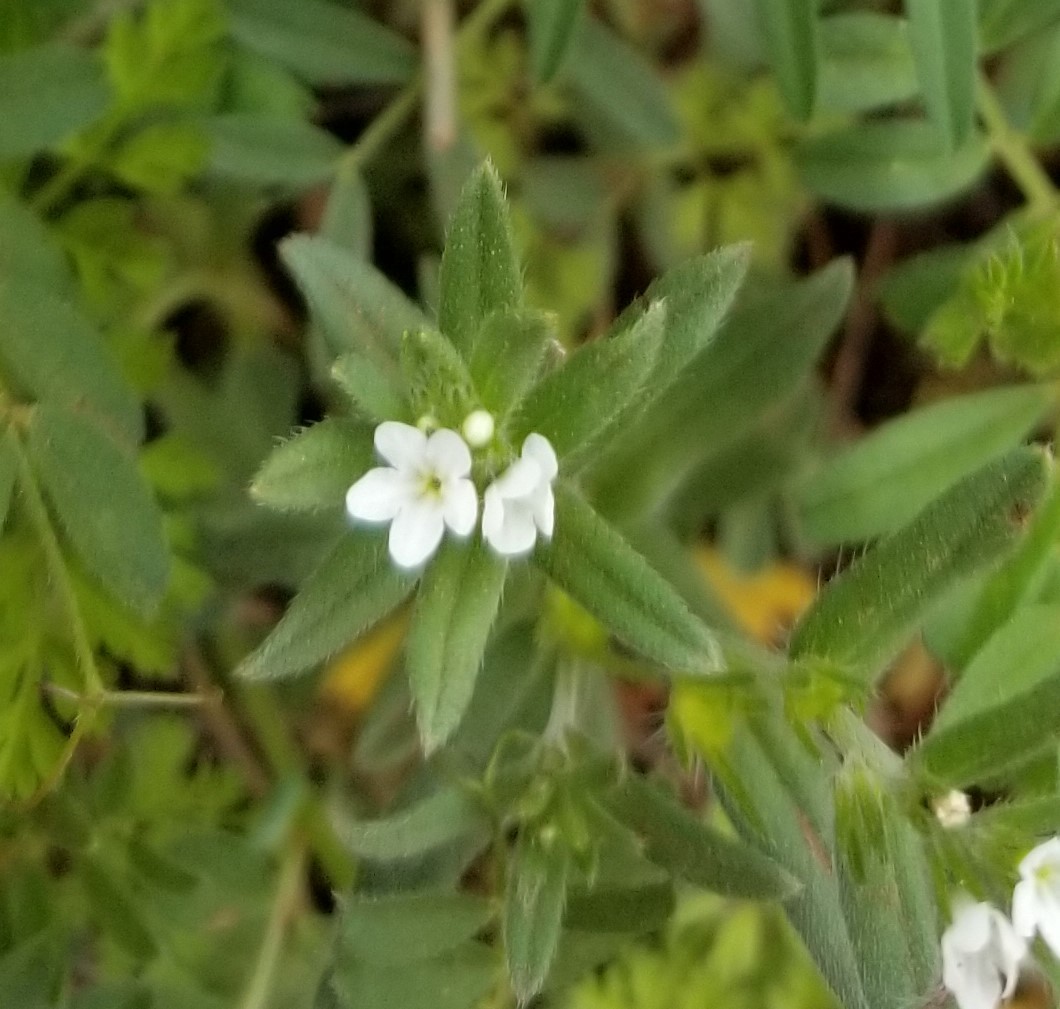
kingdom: Plantae
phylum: Tracheophyta
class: Magnoliopsida
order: Boraginales
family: Boraginaceae
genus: Buglossoides
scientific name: Buglossoides arvensis
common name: Corn gromwell
